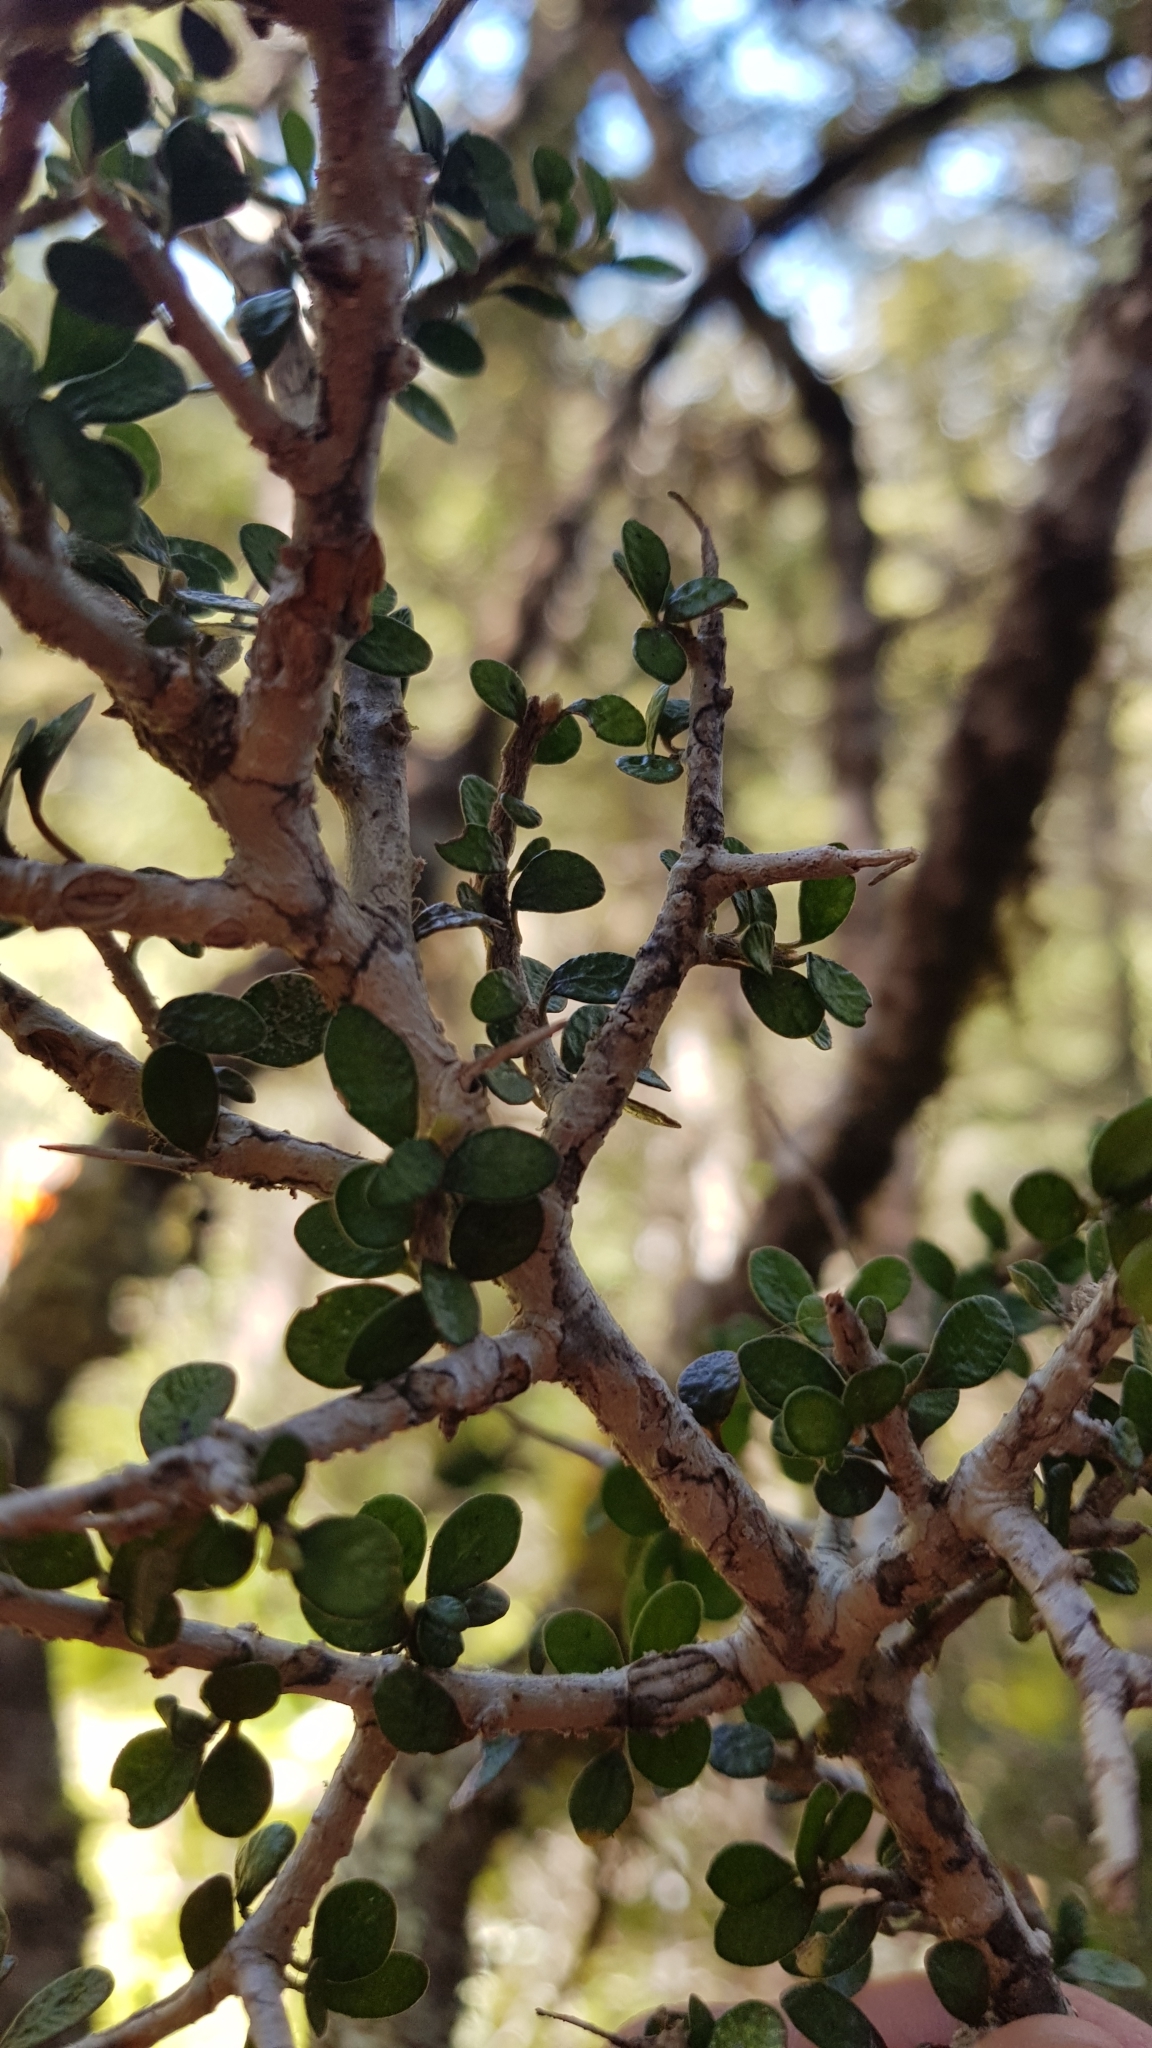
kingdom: Plantae
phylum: Tracheophyta
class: Magnoliopsida
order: Apiales
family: Pittosporaceae
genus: Pittosporum
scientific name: Pittosporum rigidum
